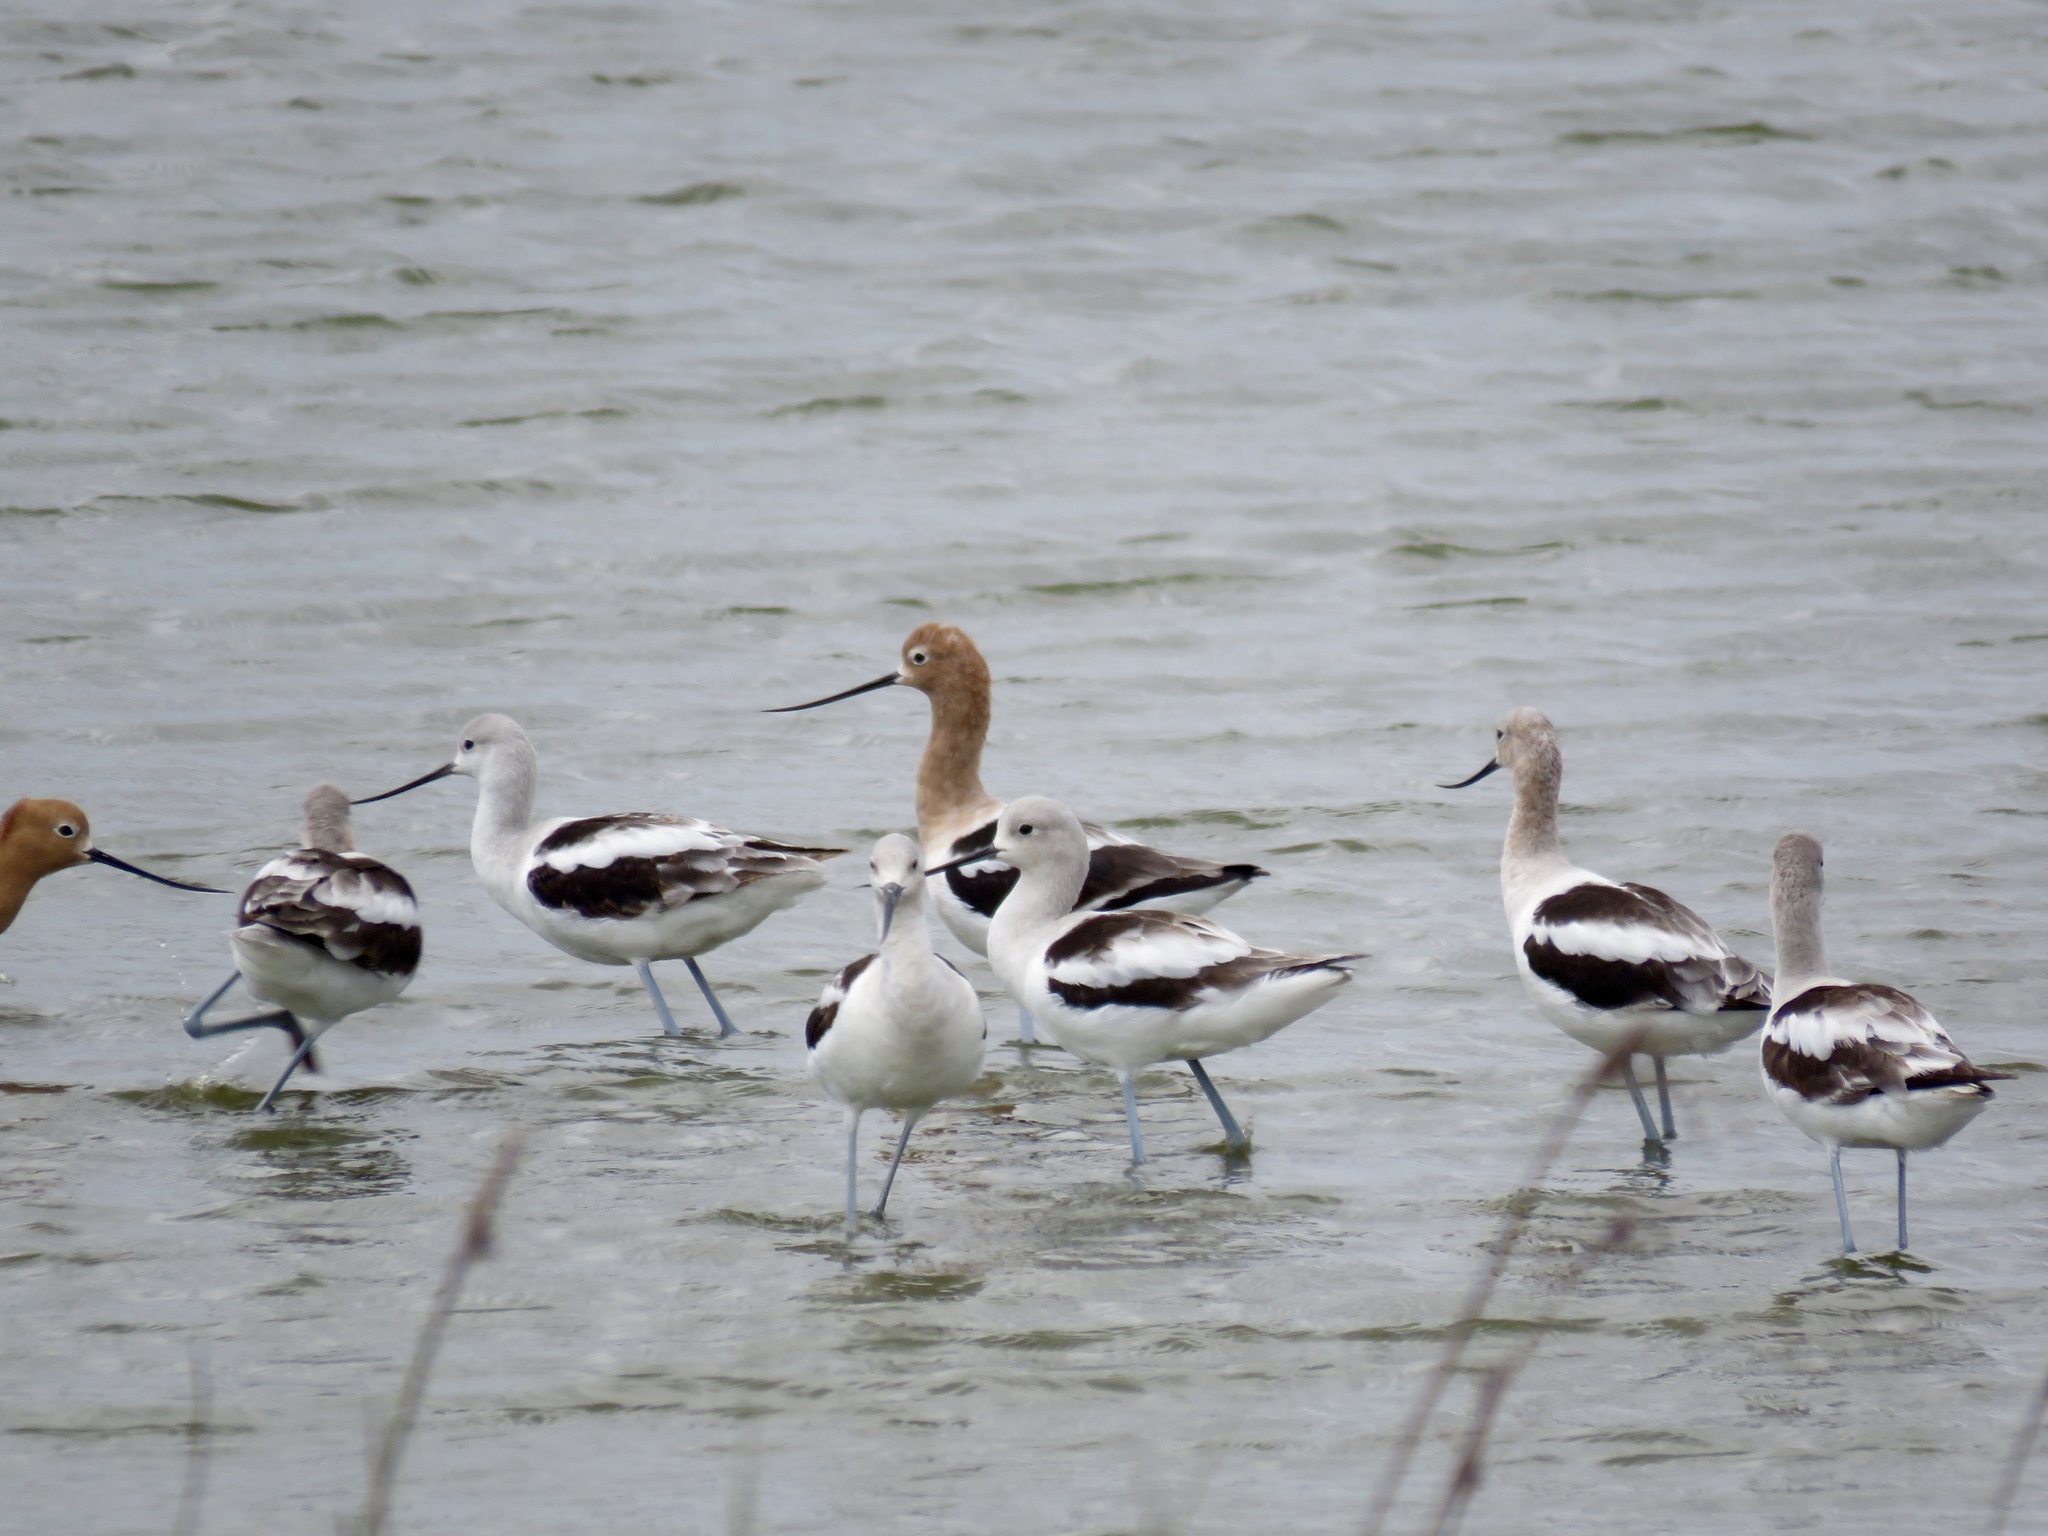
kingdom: Animalia
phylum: Chordata
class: Aves
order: Charadriiformes
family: Recurvirostridae
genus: Recurvirostra
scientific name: Recurvirostra americana
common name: American avocet
